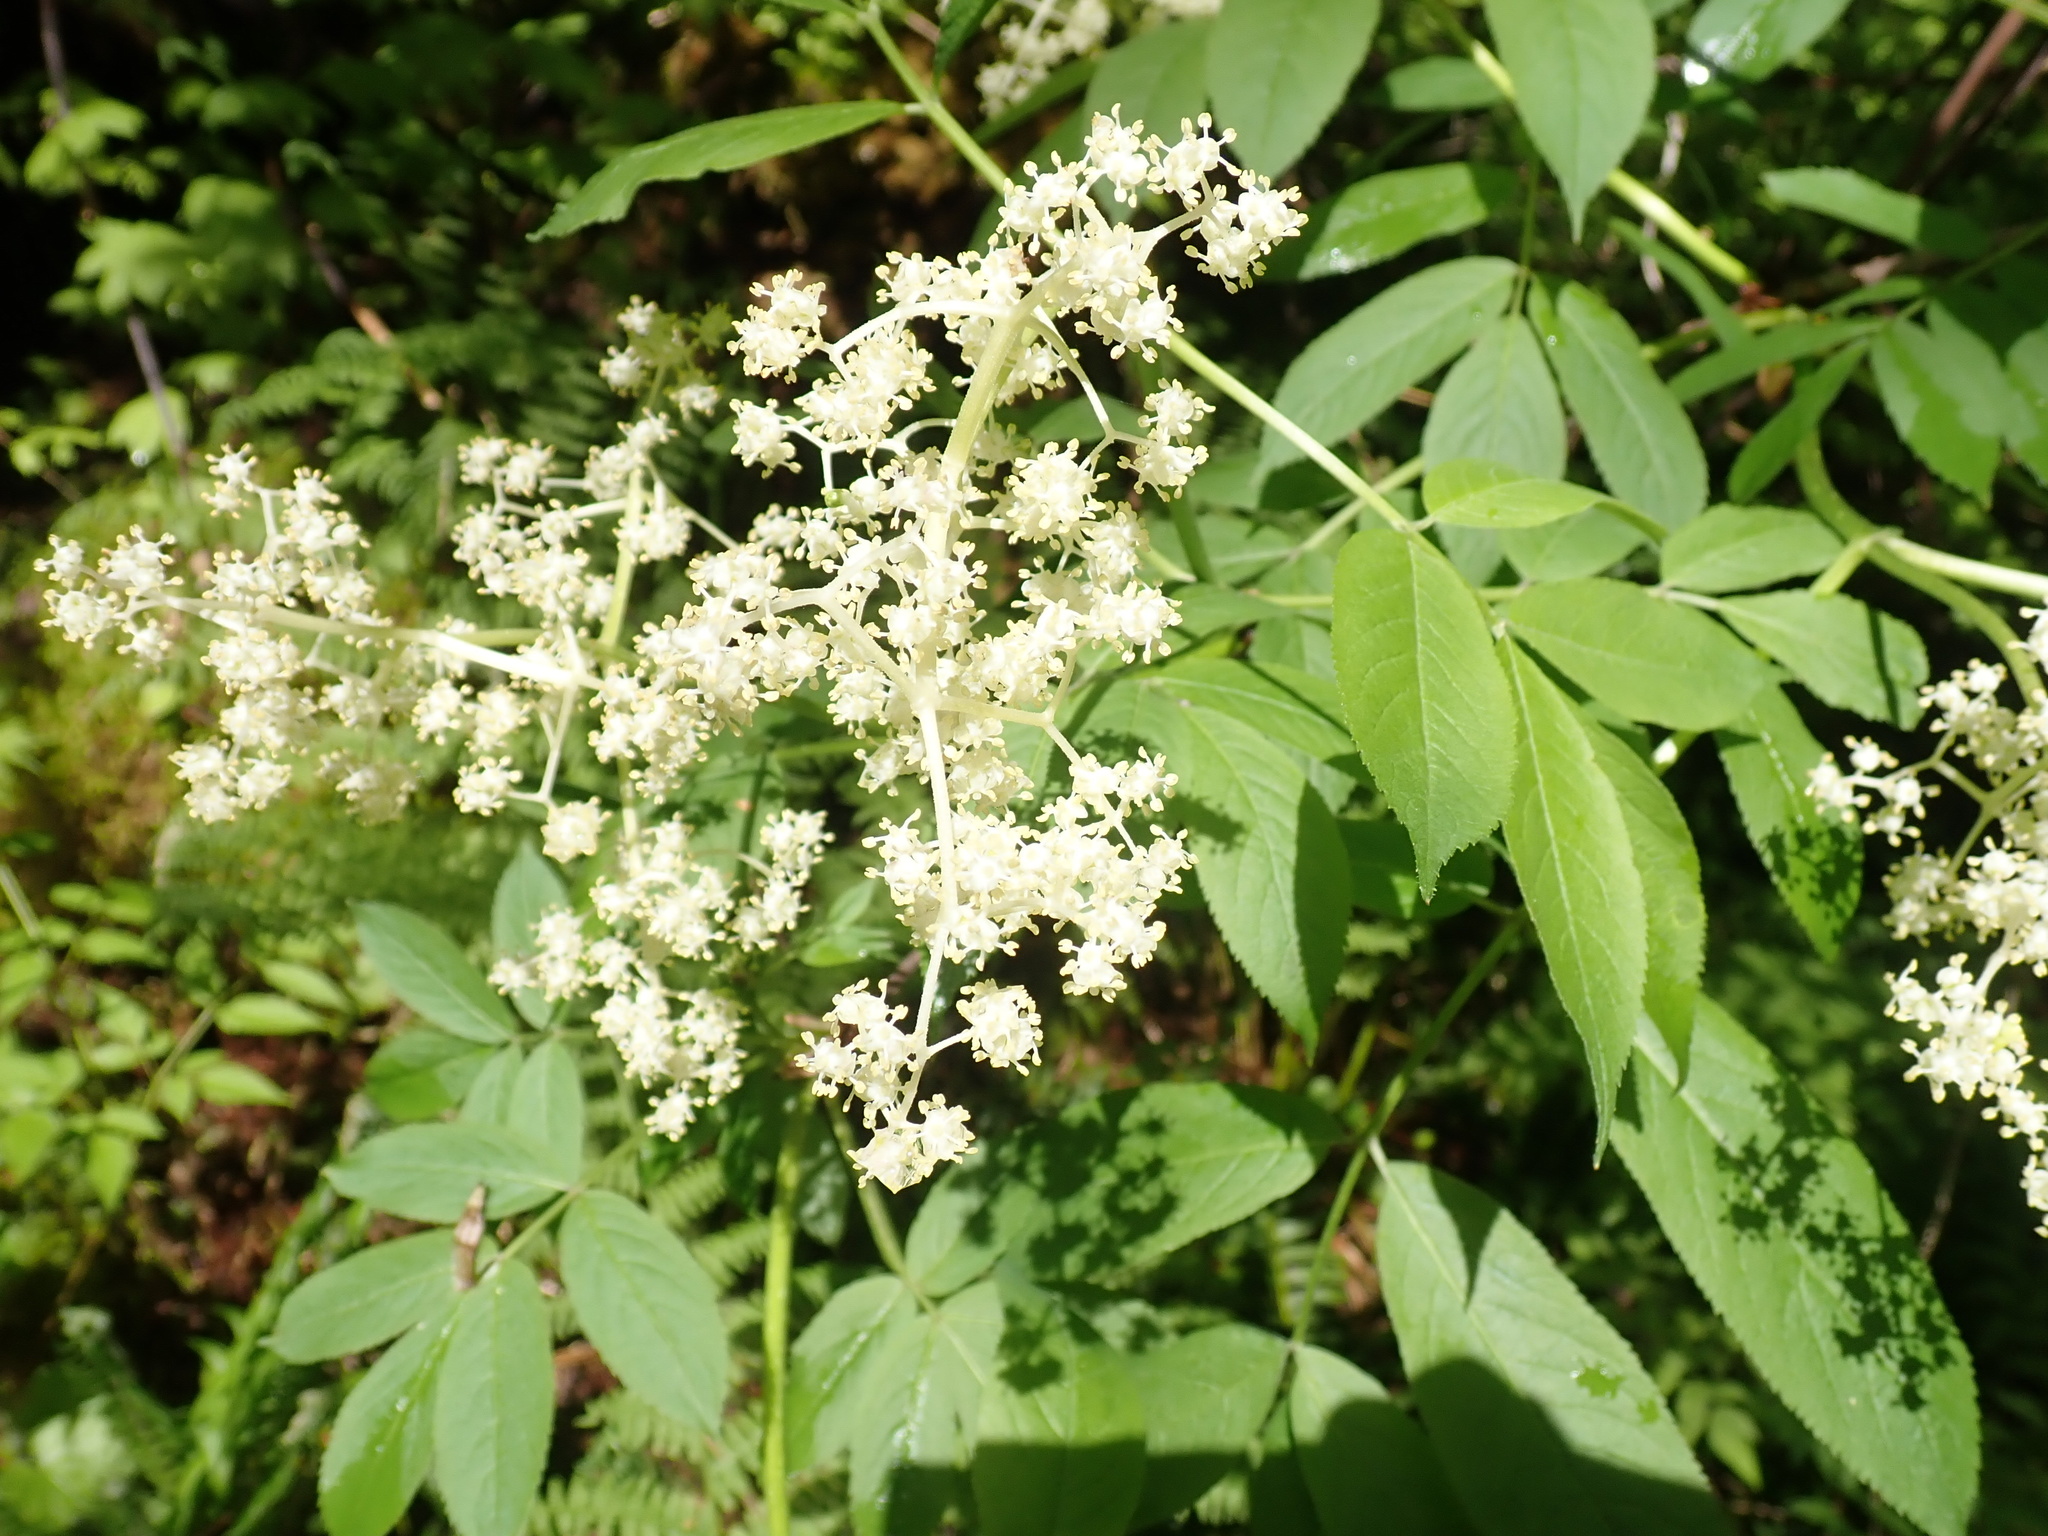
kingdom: Plantae
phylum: Tracheophyta
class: Magnoliopsida
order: Dipsacales
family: Viburnaceae
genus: Sambucus
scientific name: Sambucus racemosa
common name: Red-berried elder
